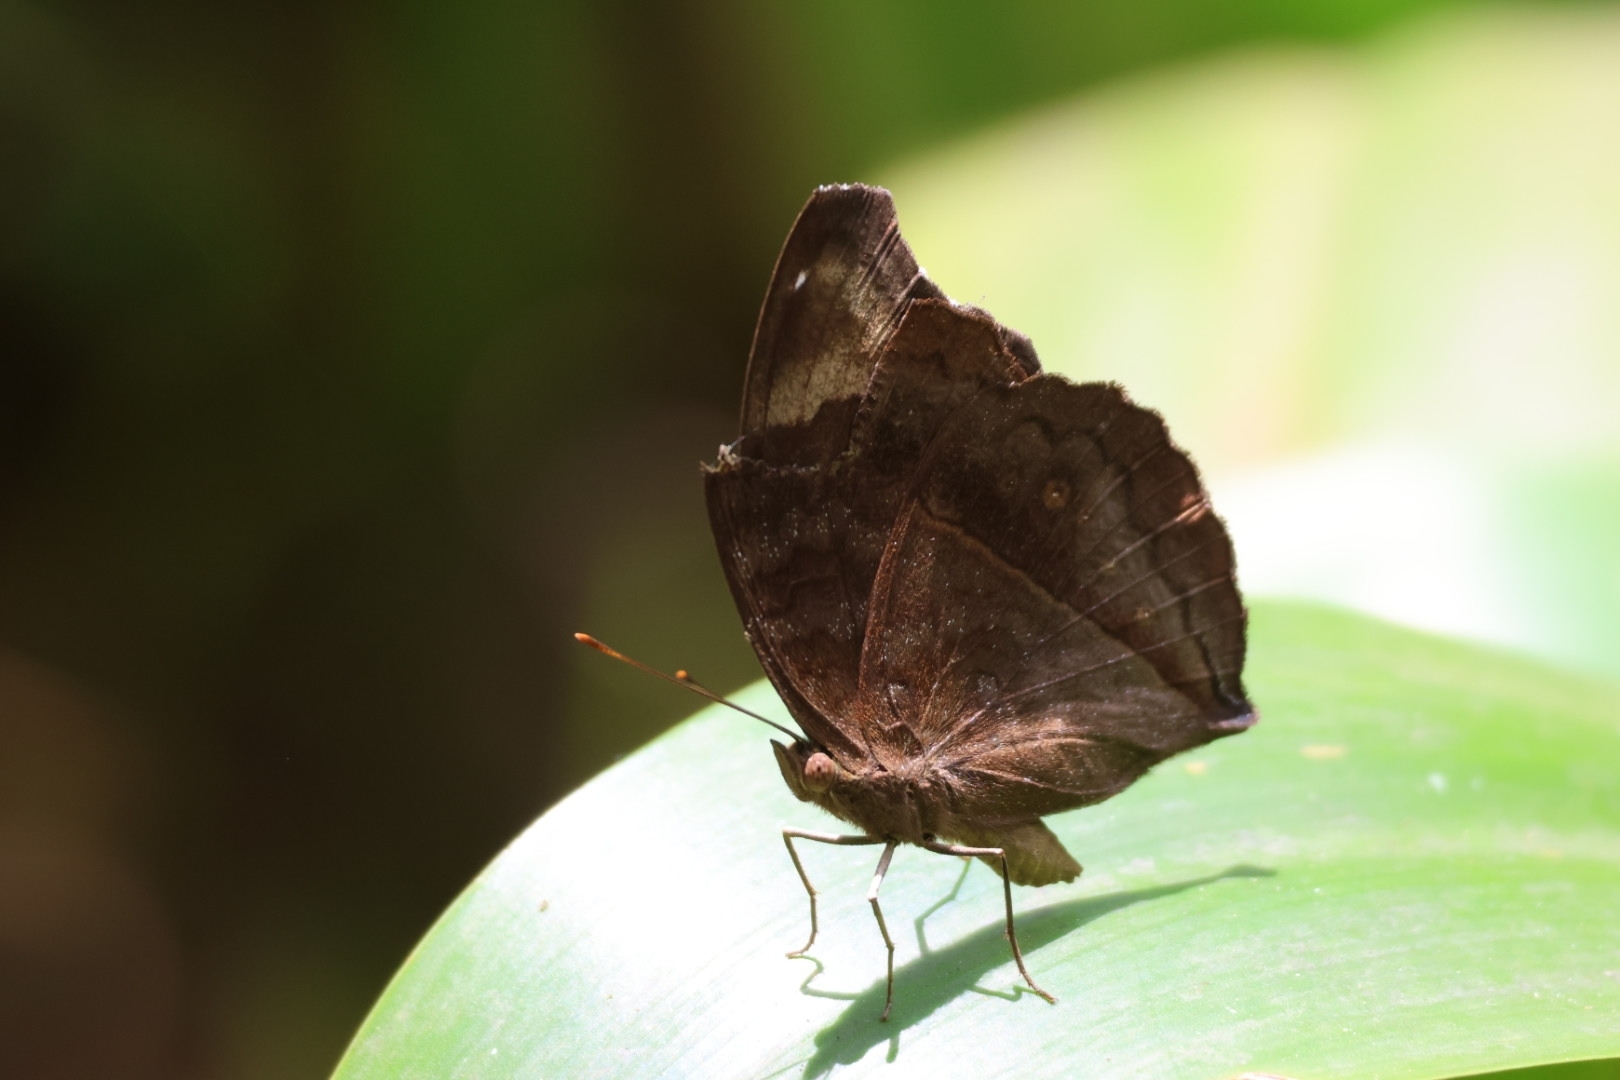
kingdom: Animalia
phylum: Arthropoda
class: Insecta
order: Lepidoptera
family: Nymphalidae
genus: Junonia
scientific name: Junonia iphita
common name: Chocolate pansy
